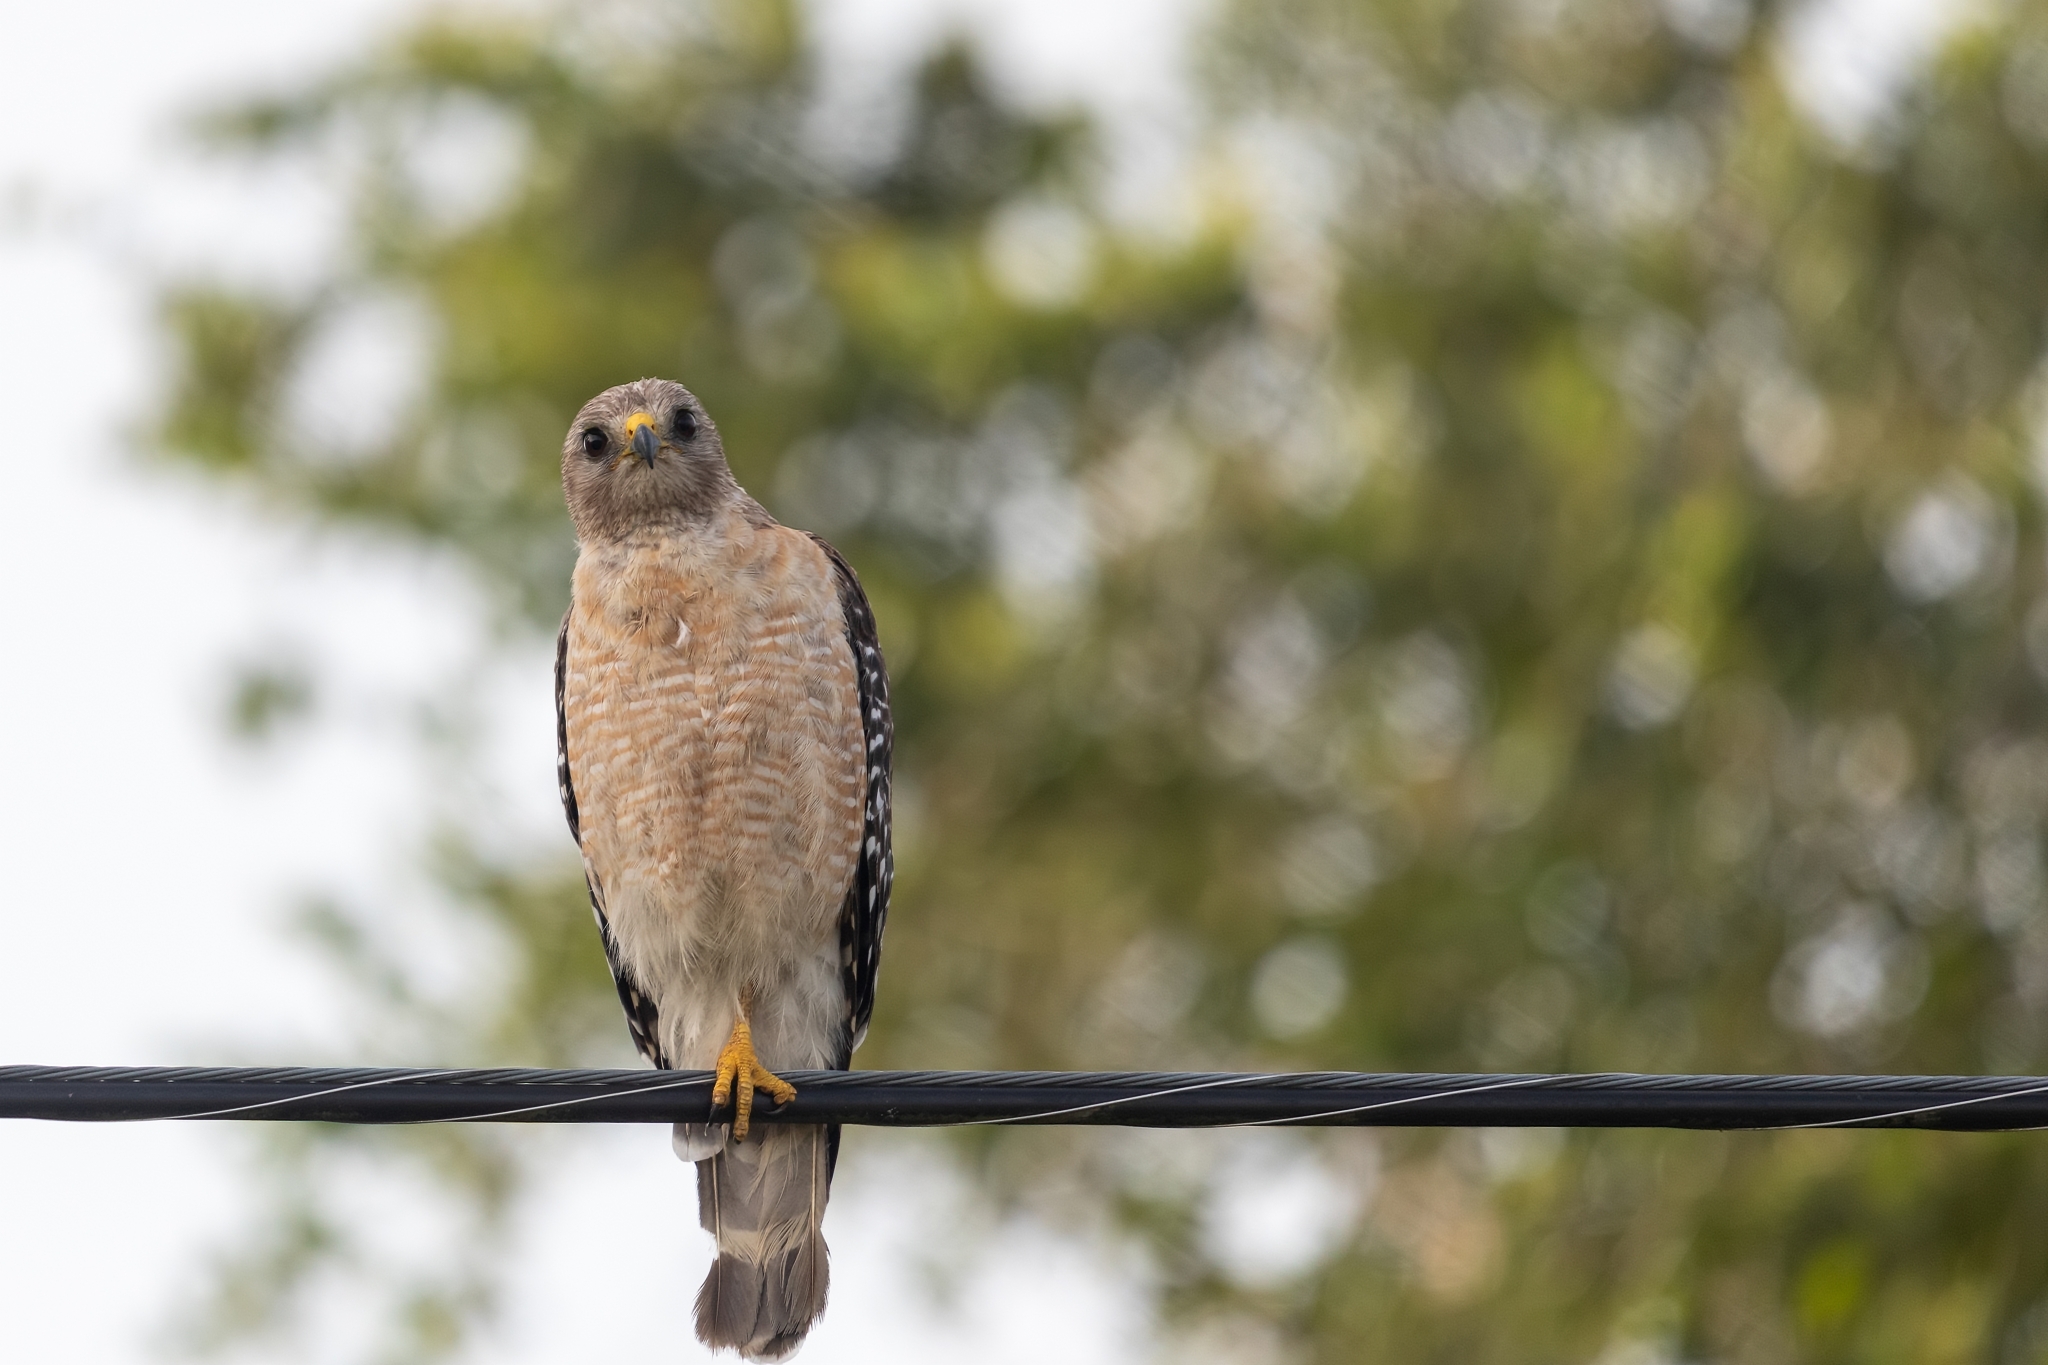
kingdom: Animalia
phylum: Chordata
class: Aves
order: Accipitriformes
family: Accipitridae
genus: Buteo
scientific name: Buteo lineatus
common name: Red-shouldered hawk
